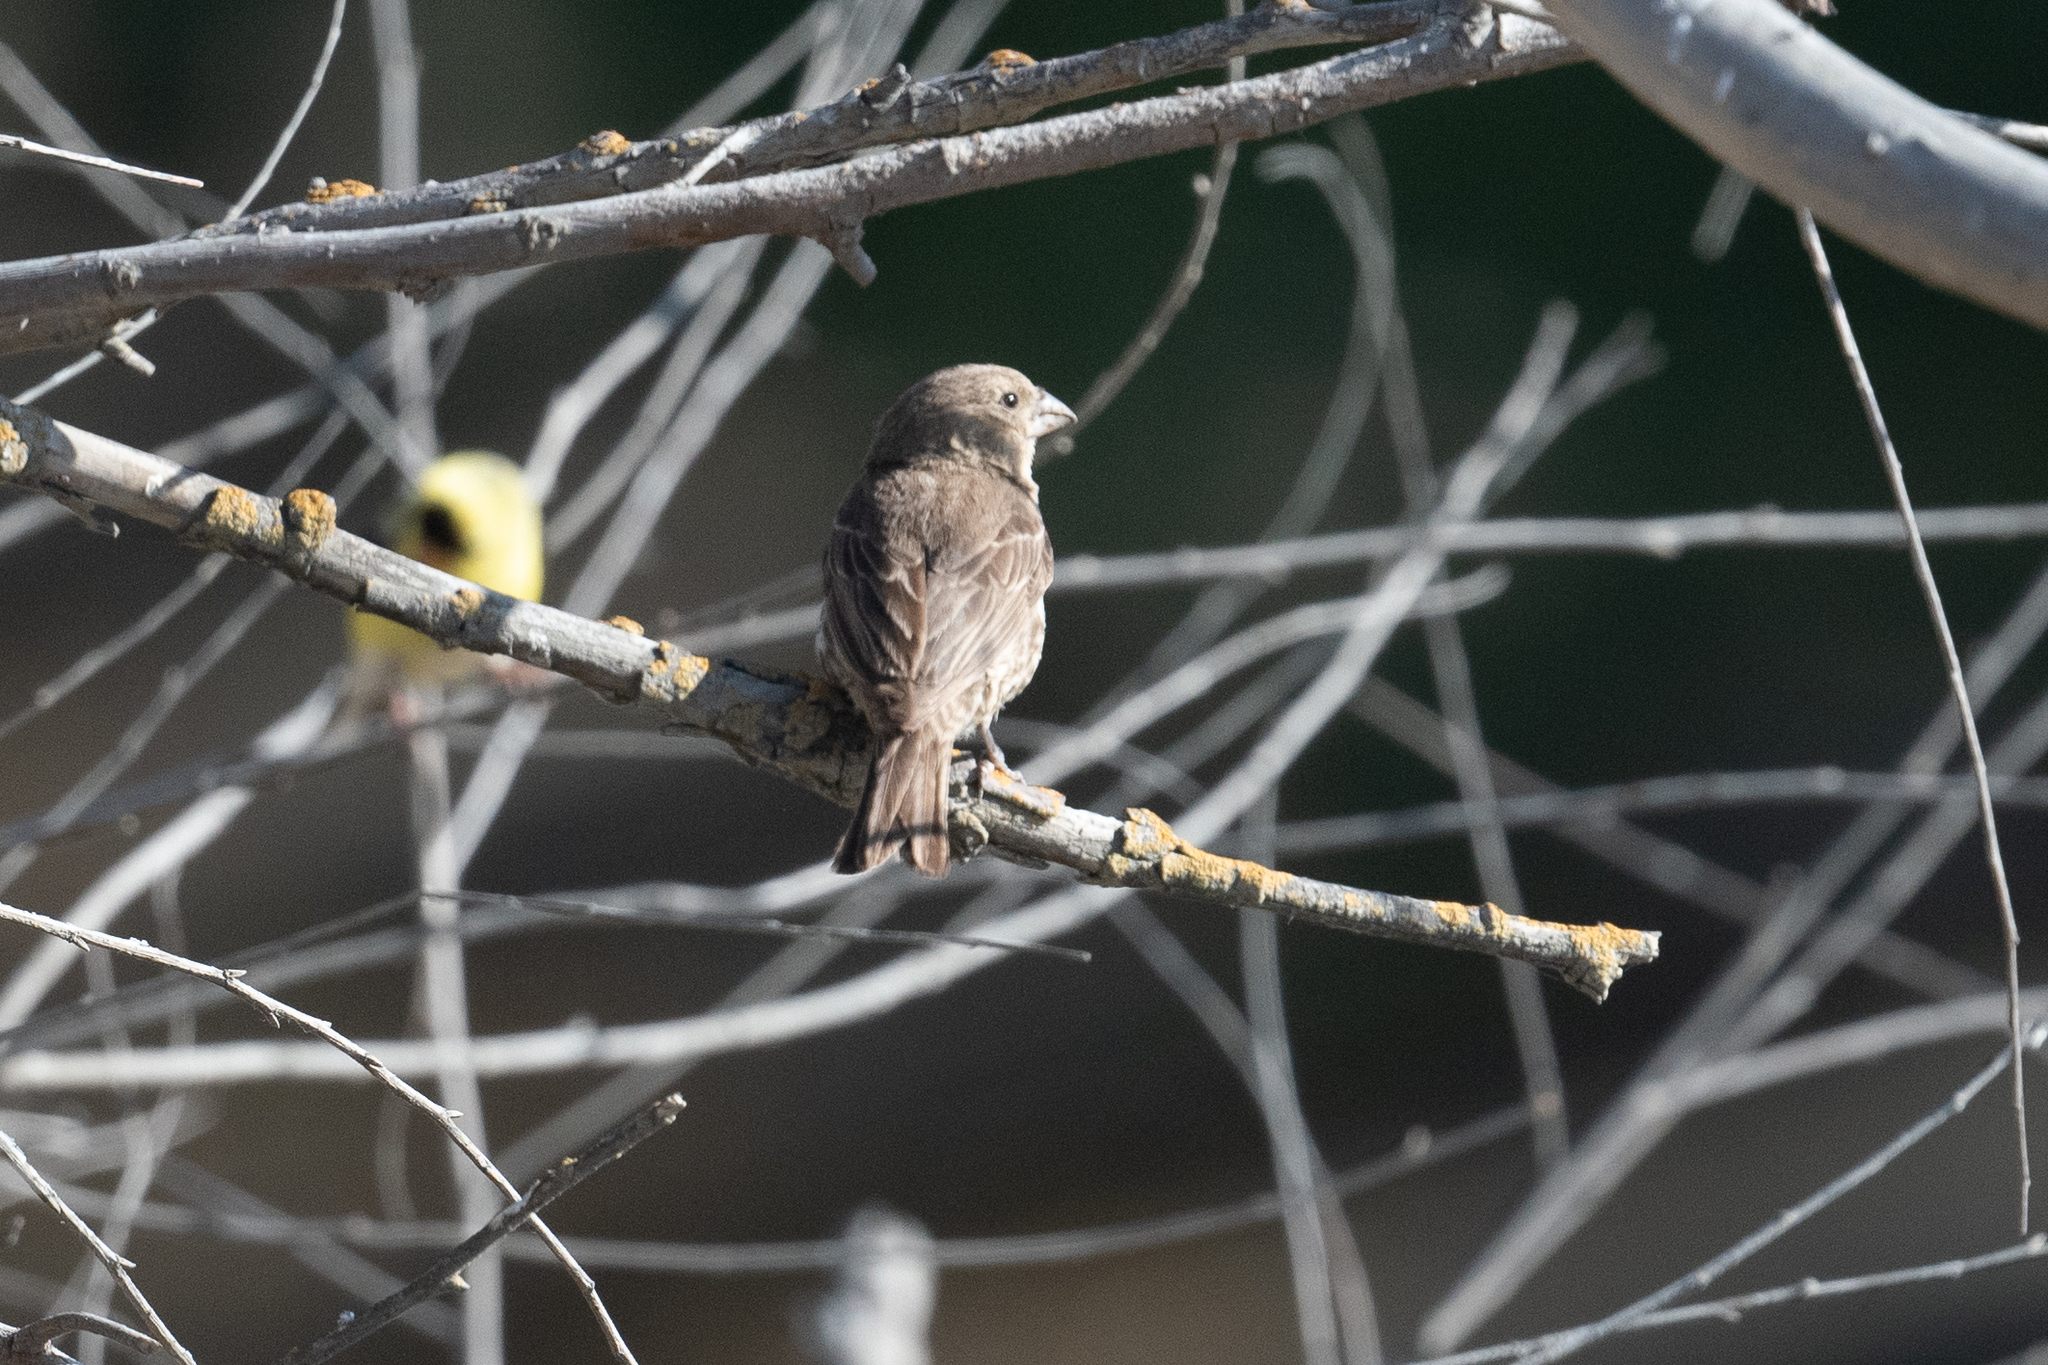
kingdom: Animalia
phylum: Chordata
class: Aves
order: Passeriformes
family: Fringillidae
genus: Haemorhous
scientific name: Haemorhous mexicanus
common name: House finch
